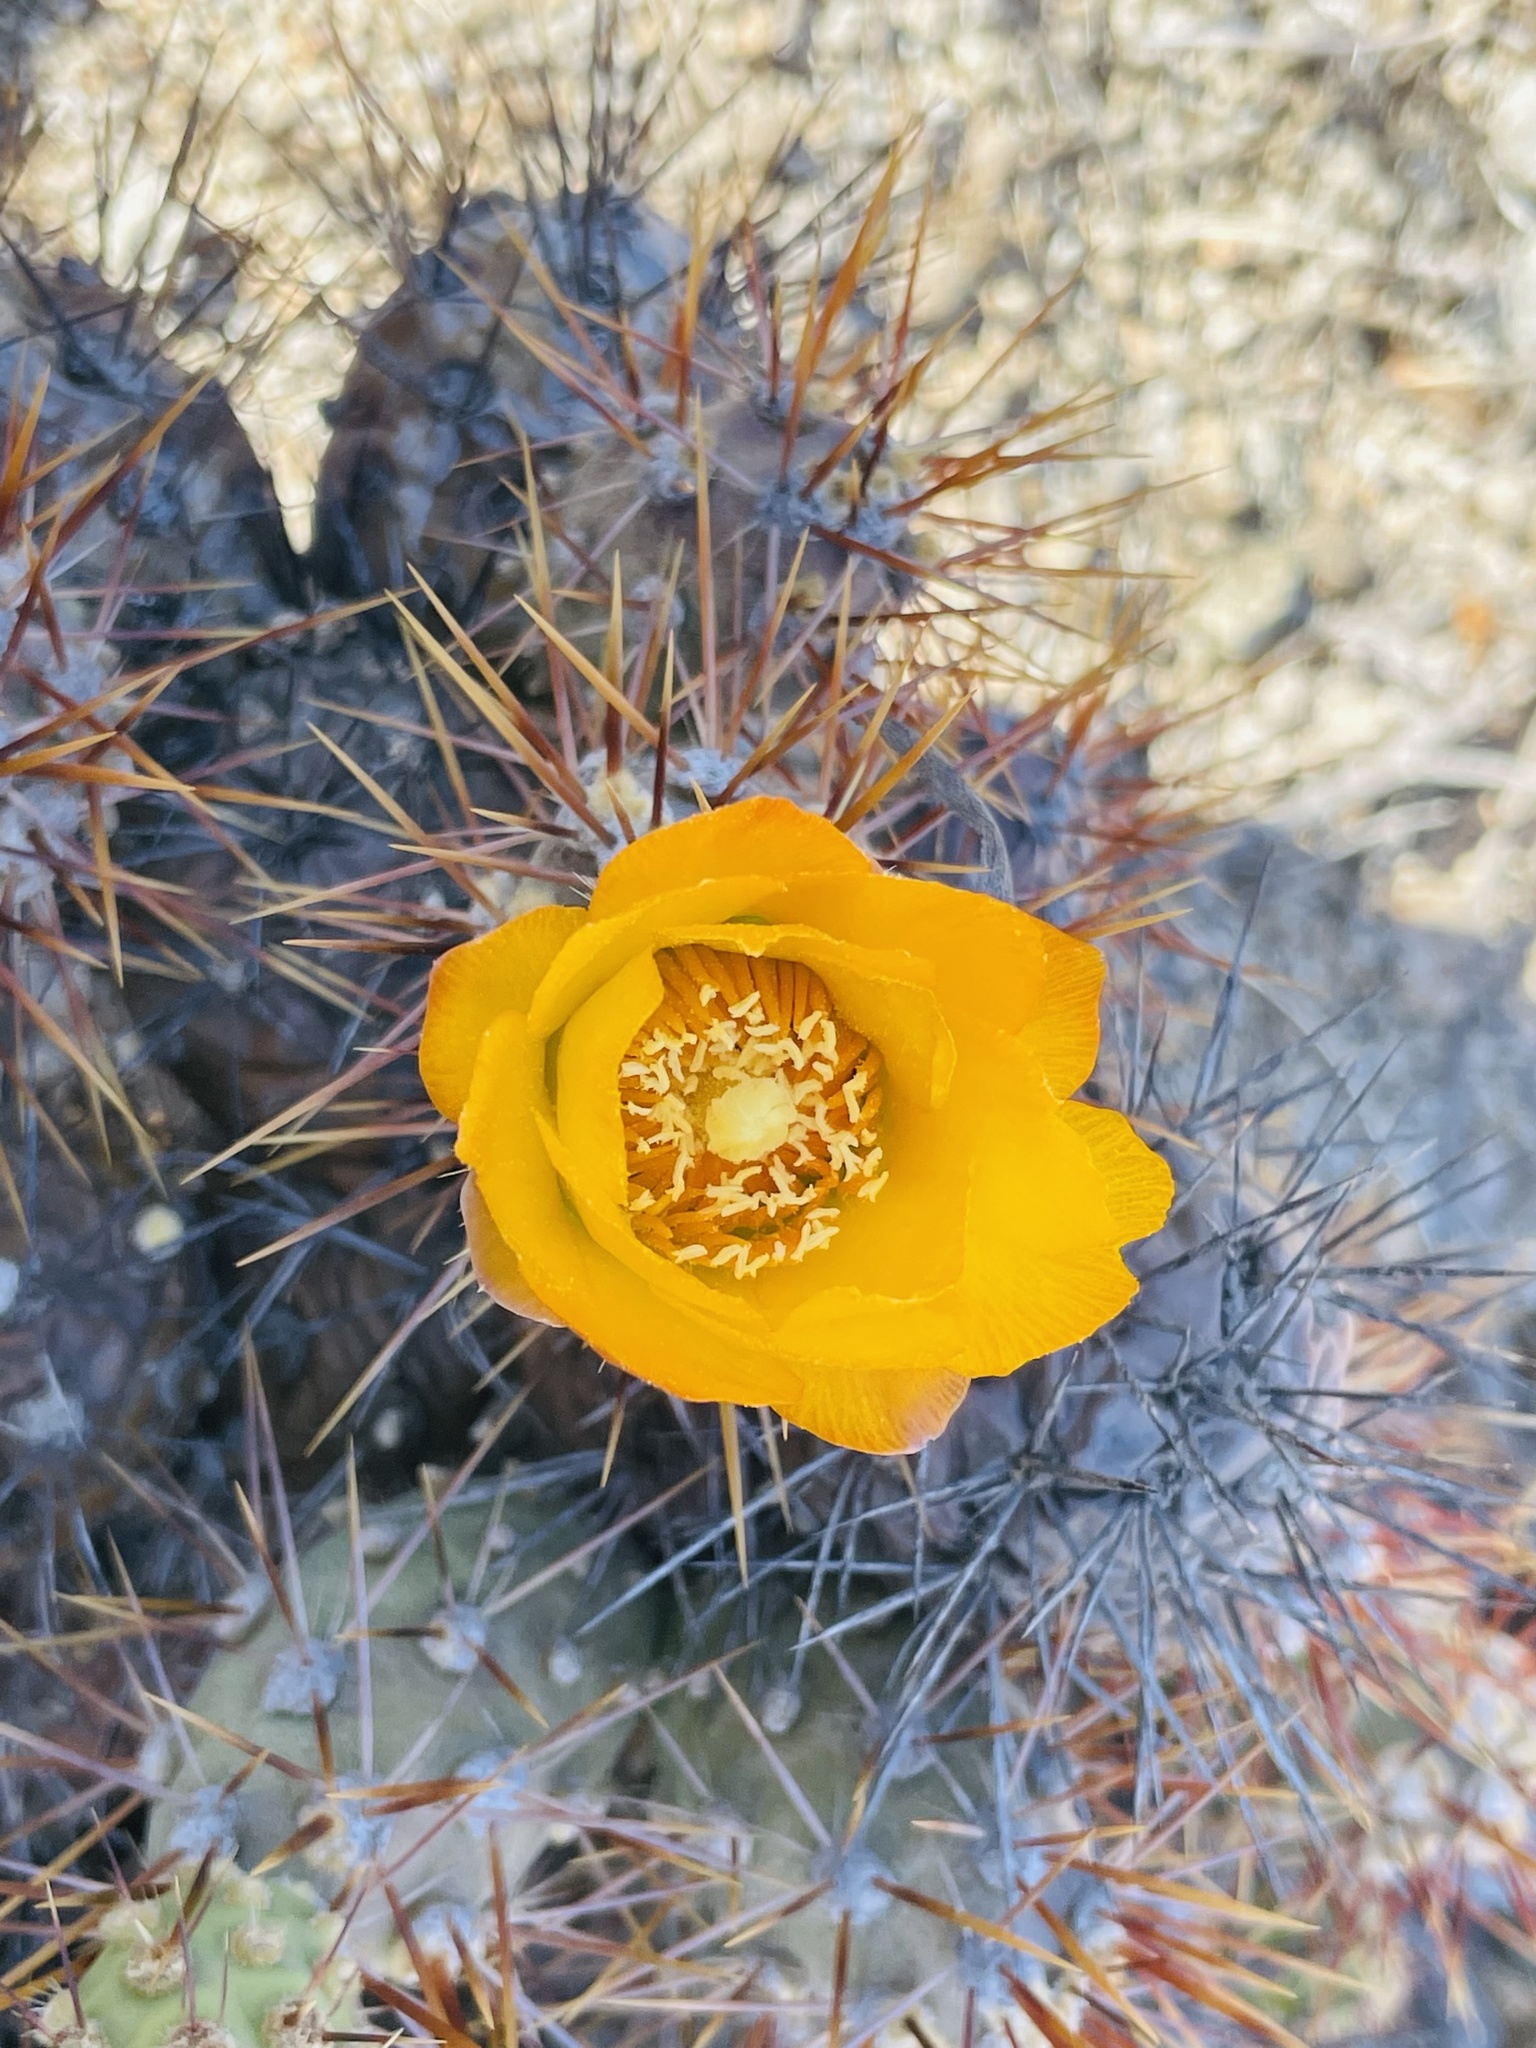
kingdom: Plantae
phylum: Tracheophyta
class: Magnoliopsida
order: Caryophyllales
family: Cactaceae
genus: Cumulopuntia
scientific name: Cumulopuntia leucophaea
